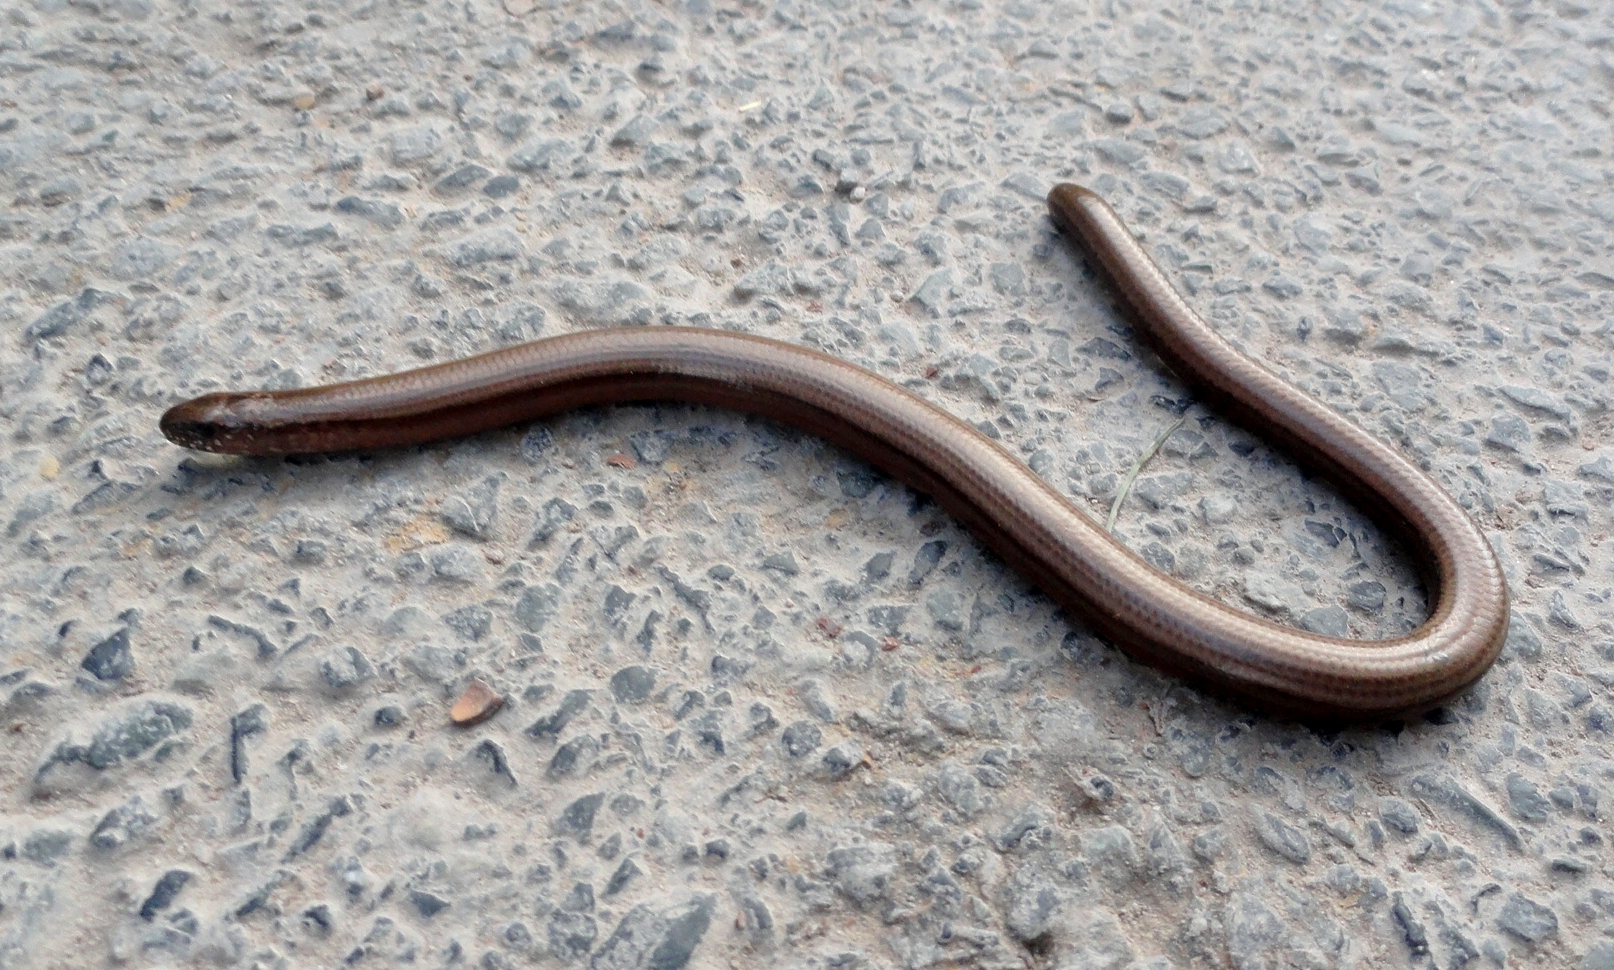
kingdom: Animalia
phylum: Chordata
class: Squamata
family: Anguidae
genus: Anguis
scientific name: Anguis fragilis
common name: Slow worm
